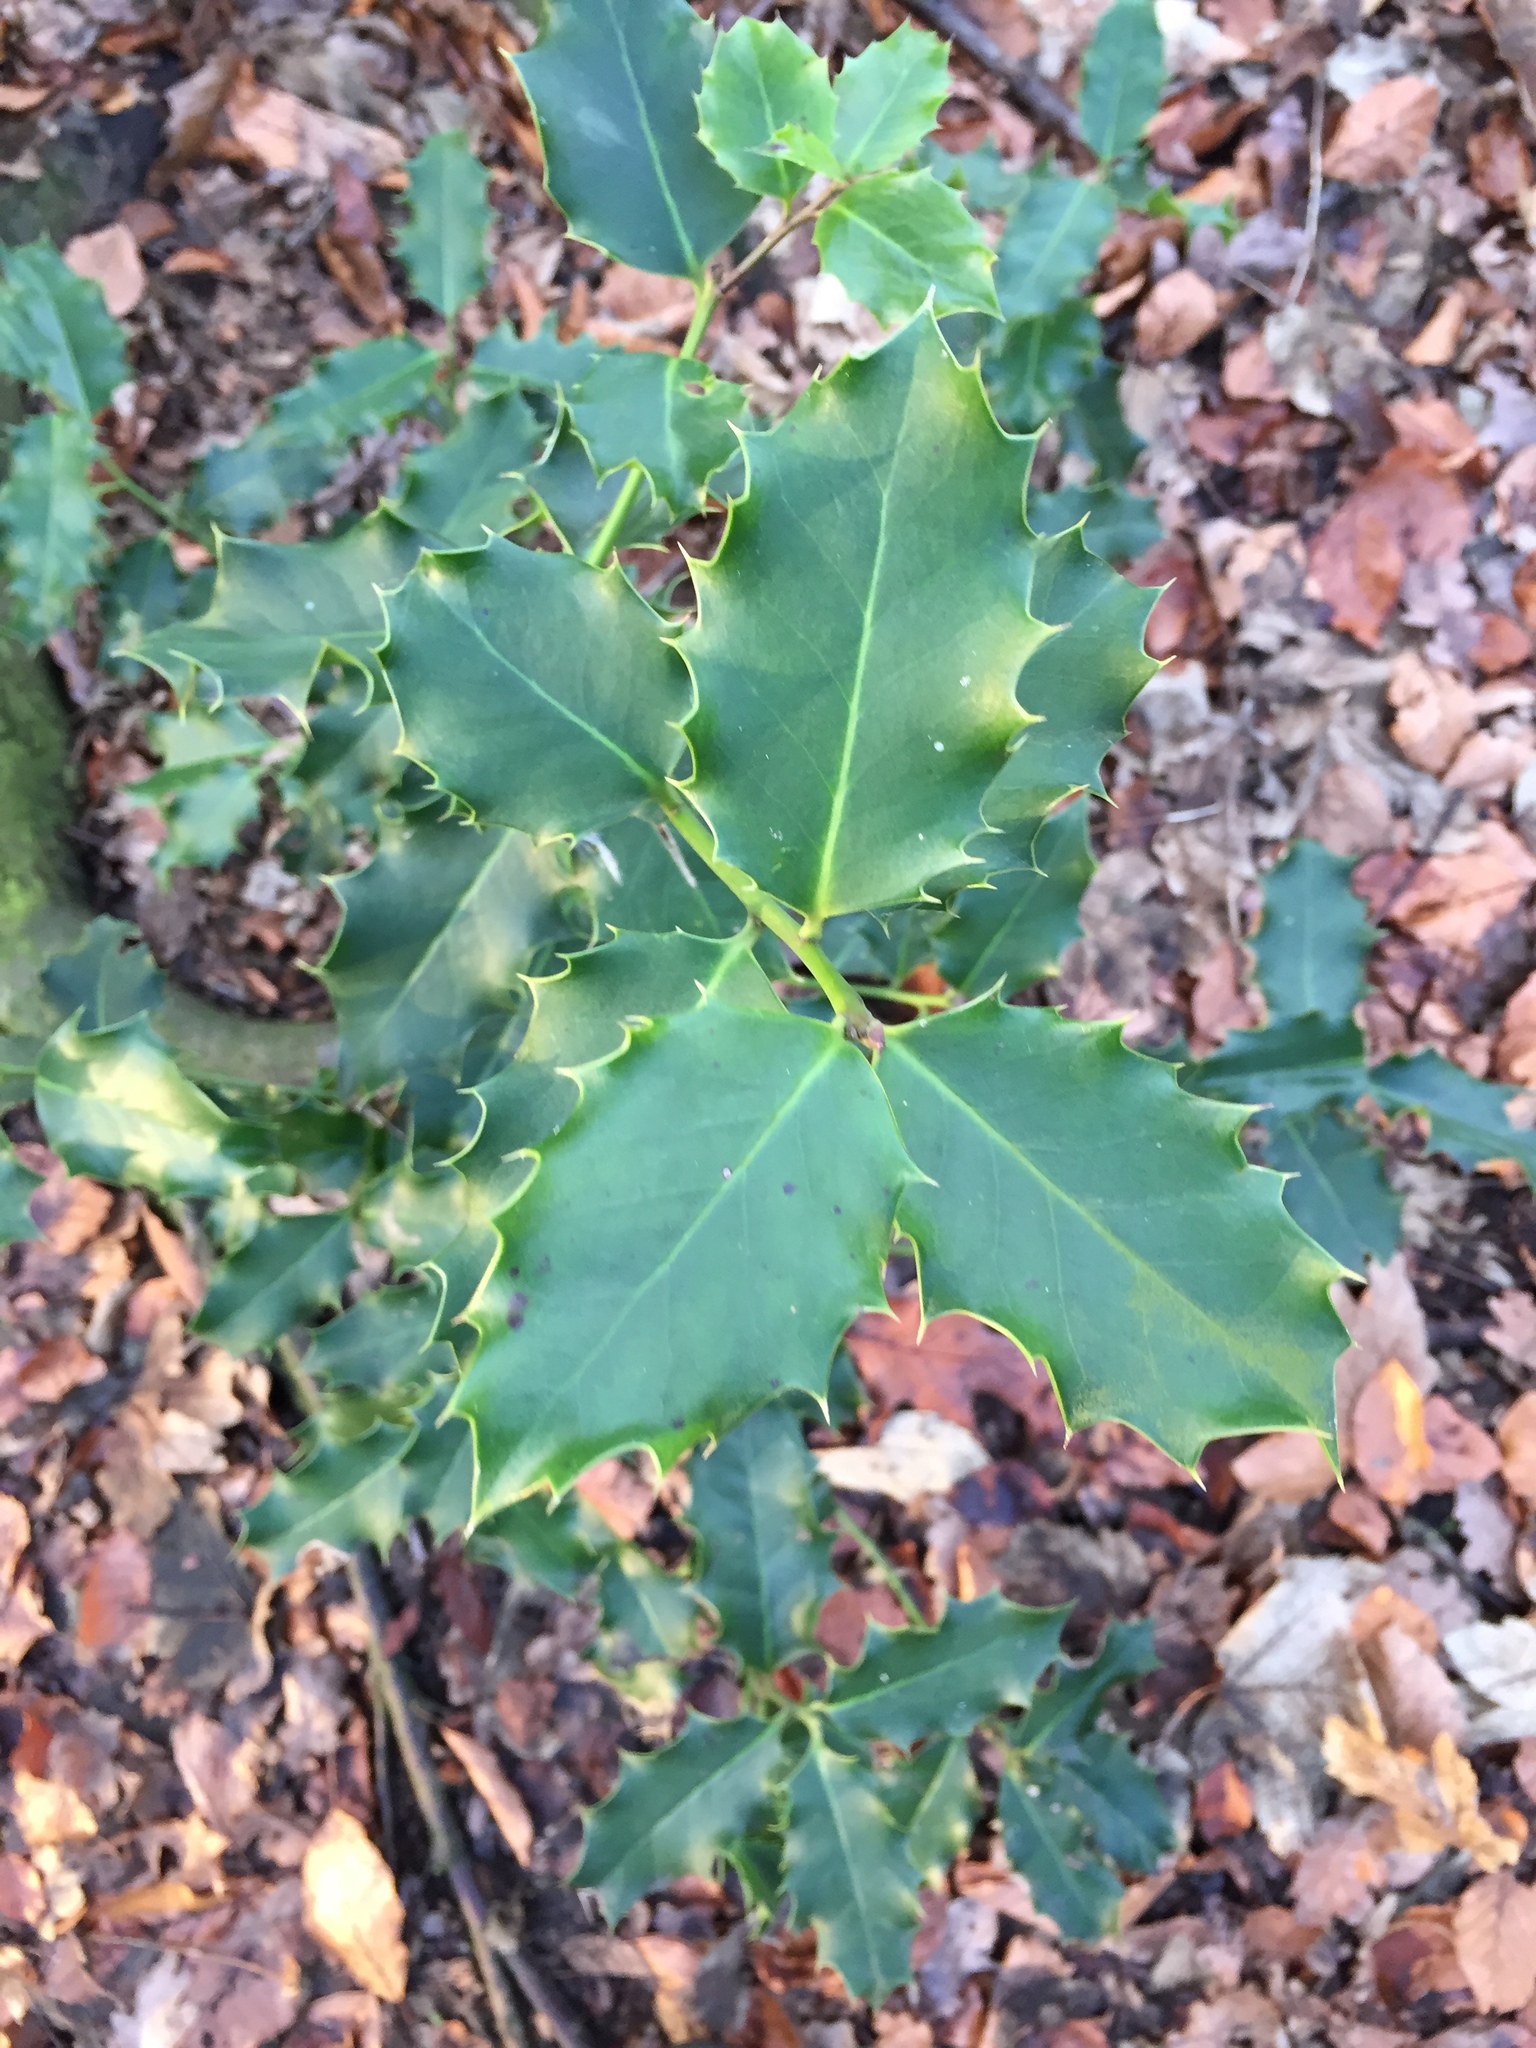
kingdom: Plantae
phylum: Tracheophyta
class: Magnoliopsida
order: Aquifoliales
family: Aquifoliaceae
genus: Ilex
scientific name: Ilex aquifolium
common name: English holly
